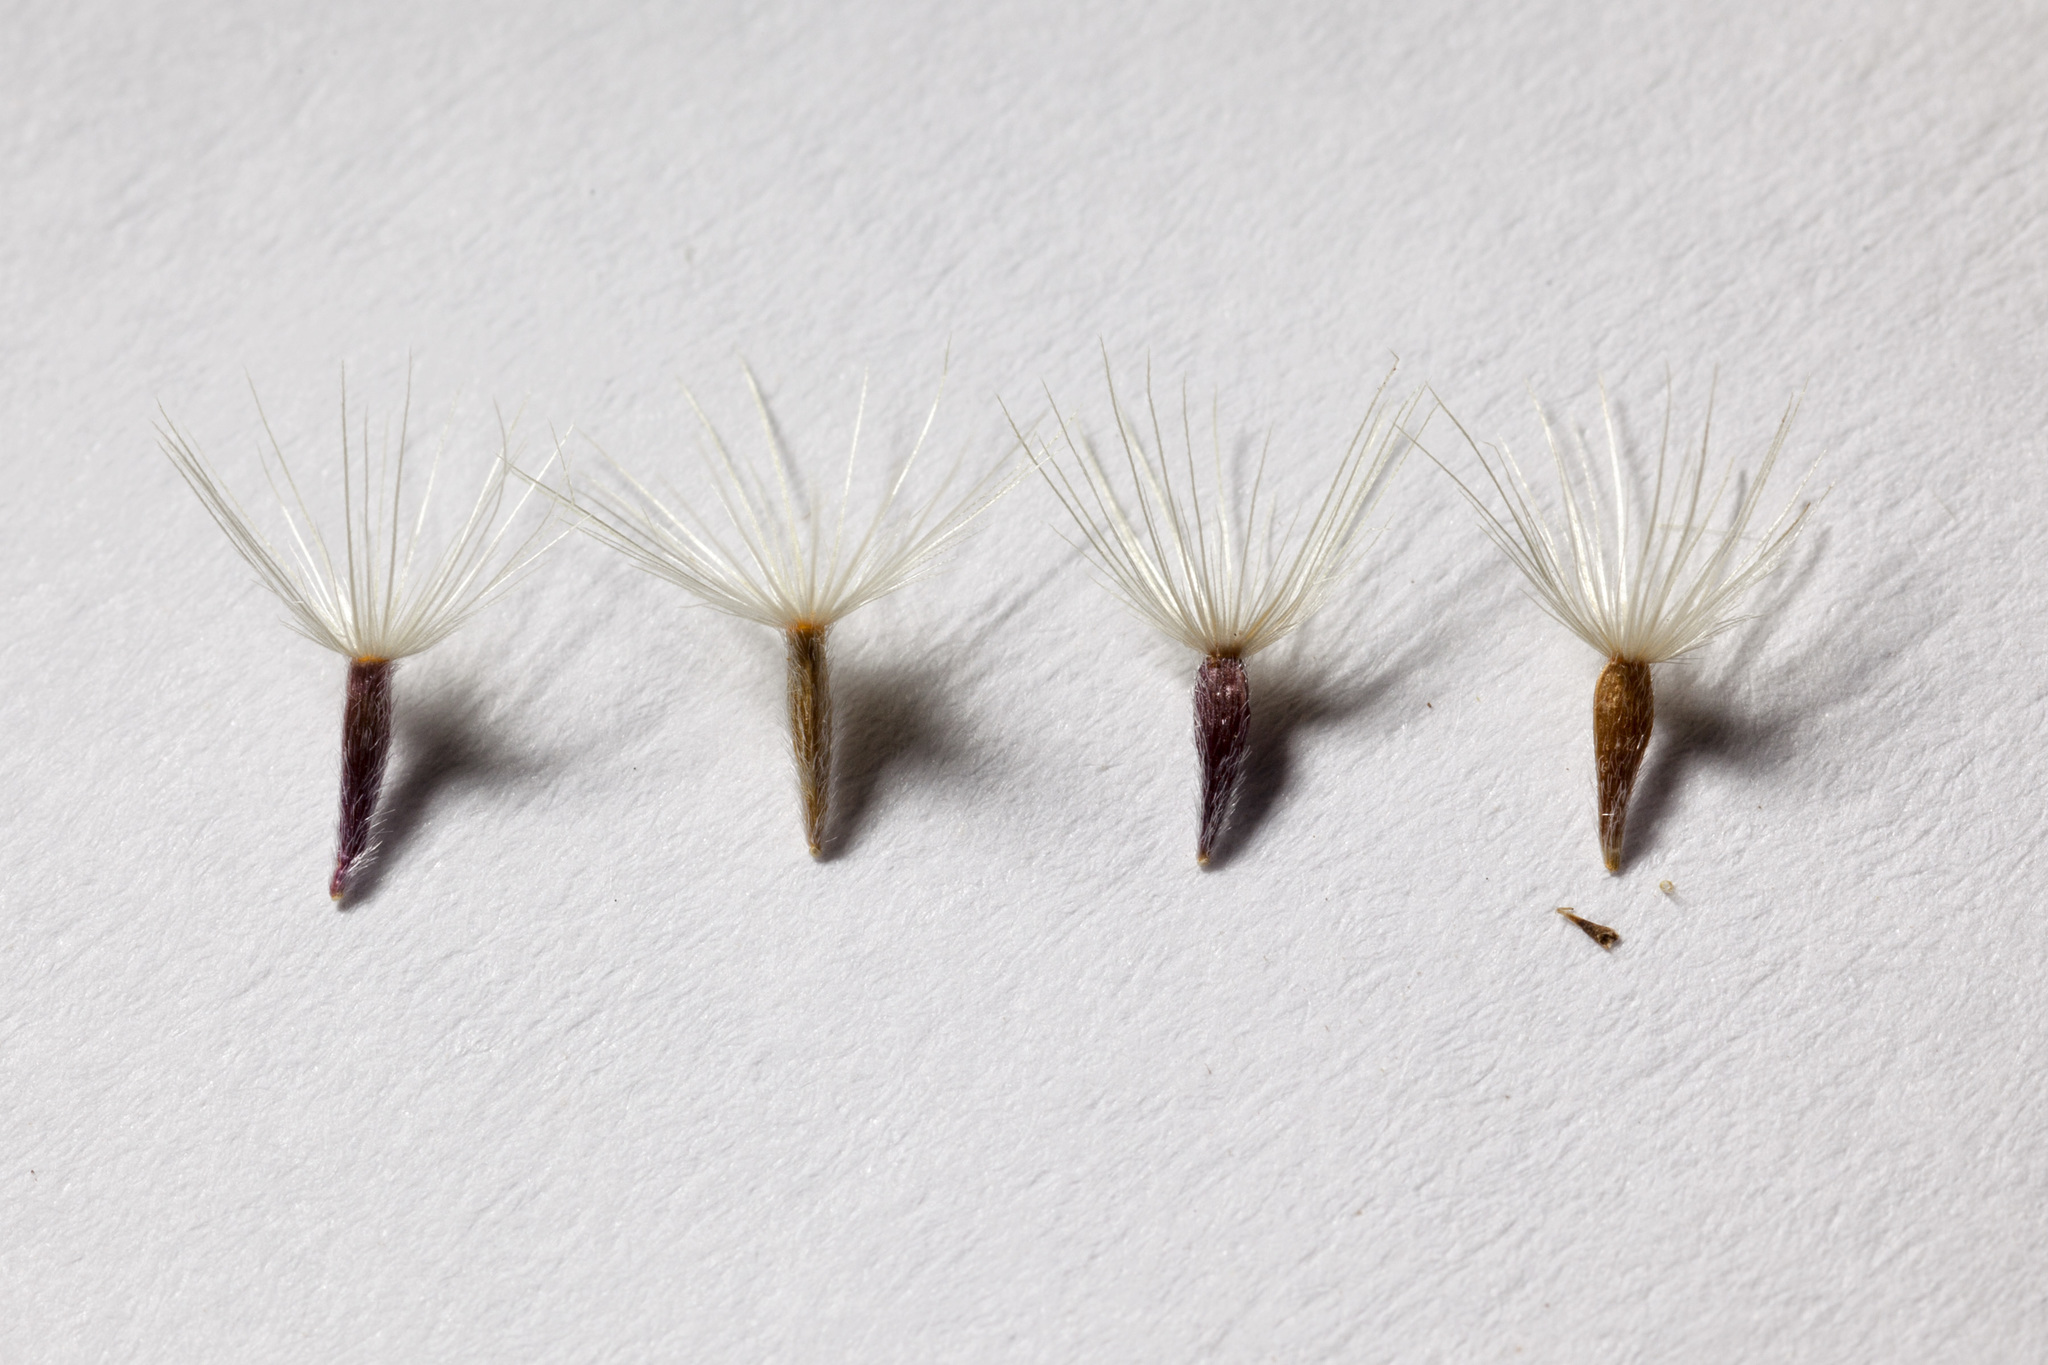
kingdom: Plantae
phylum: Tracheophyta
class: Magnoliopsida
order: Asterales
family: Asteraceae
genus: Xanthisma
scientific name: Xanthisma gracile
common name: Slender goldenweed
